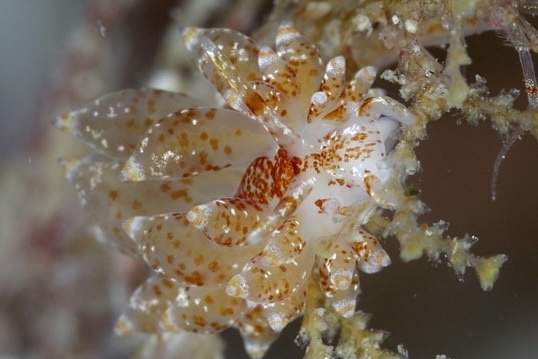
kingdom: Animalia
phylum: Mollusca
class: Gastropoda
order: Nudibranchia
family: Eubranchidae
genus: Amphorina
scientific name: Amphorina pallida
